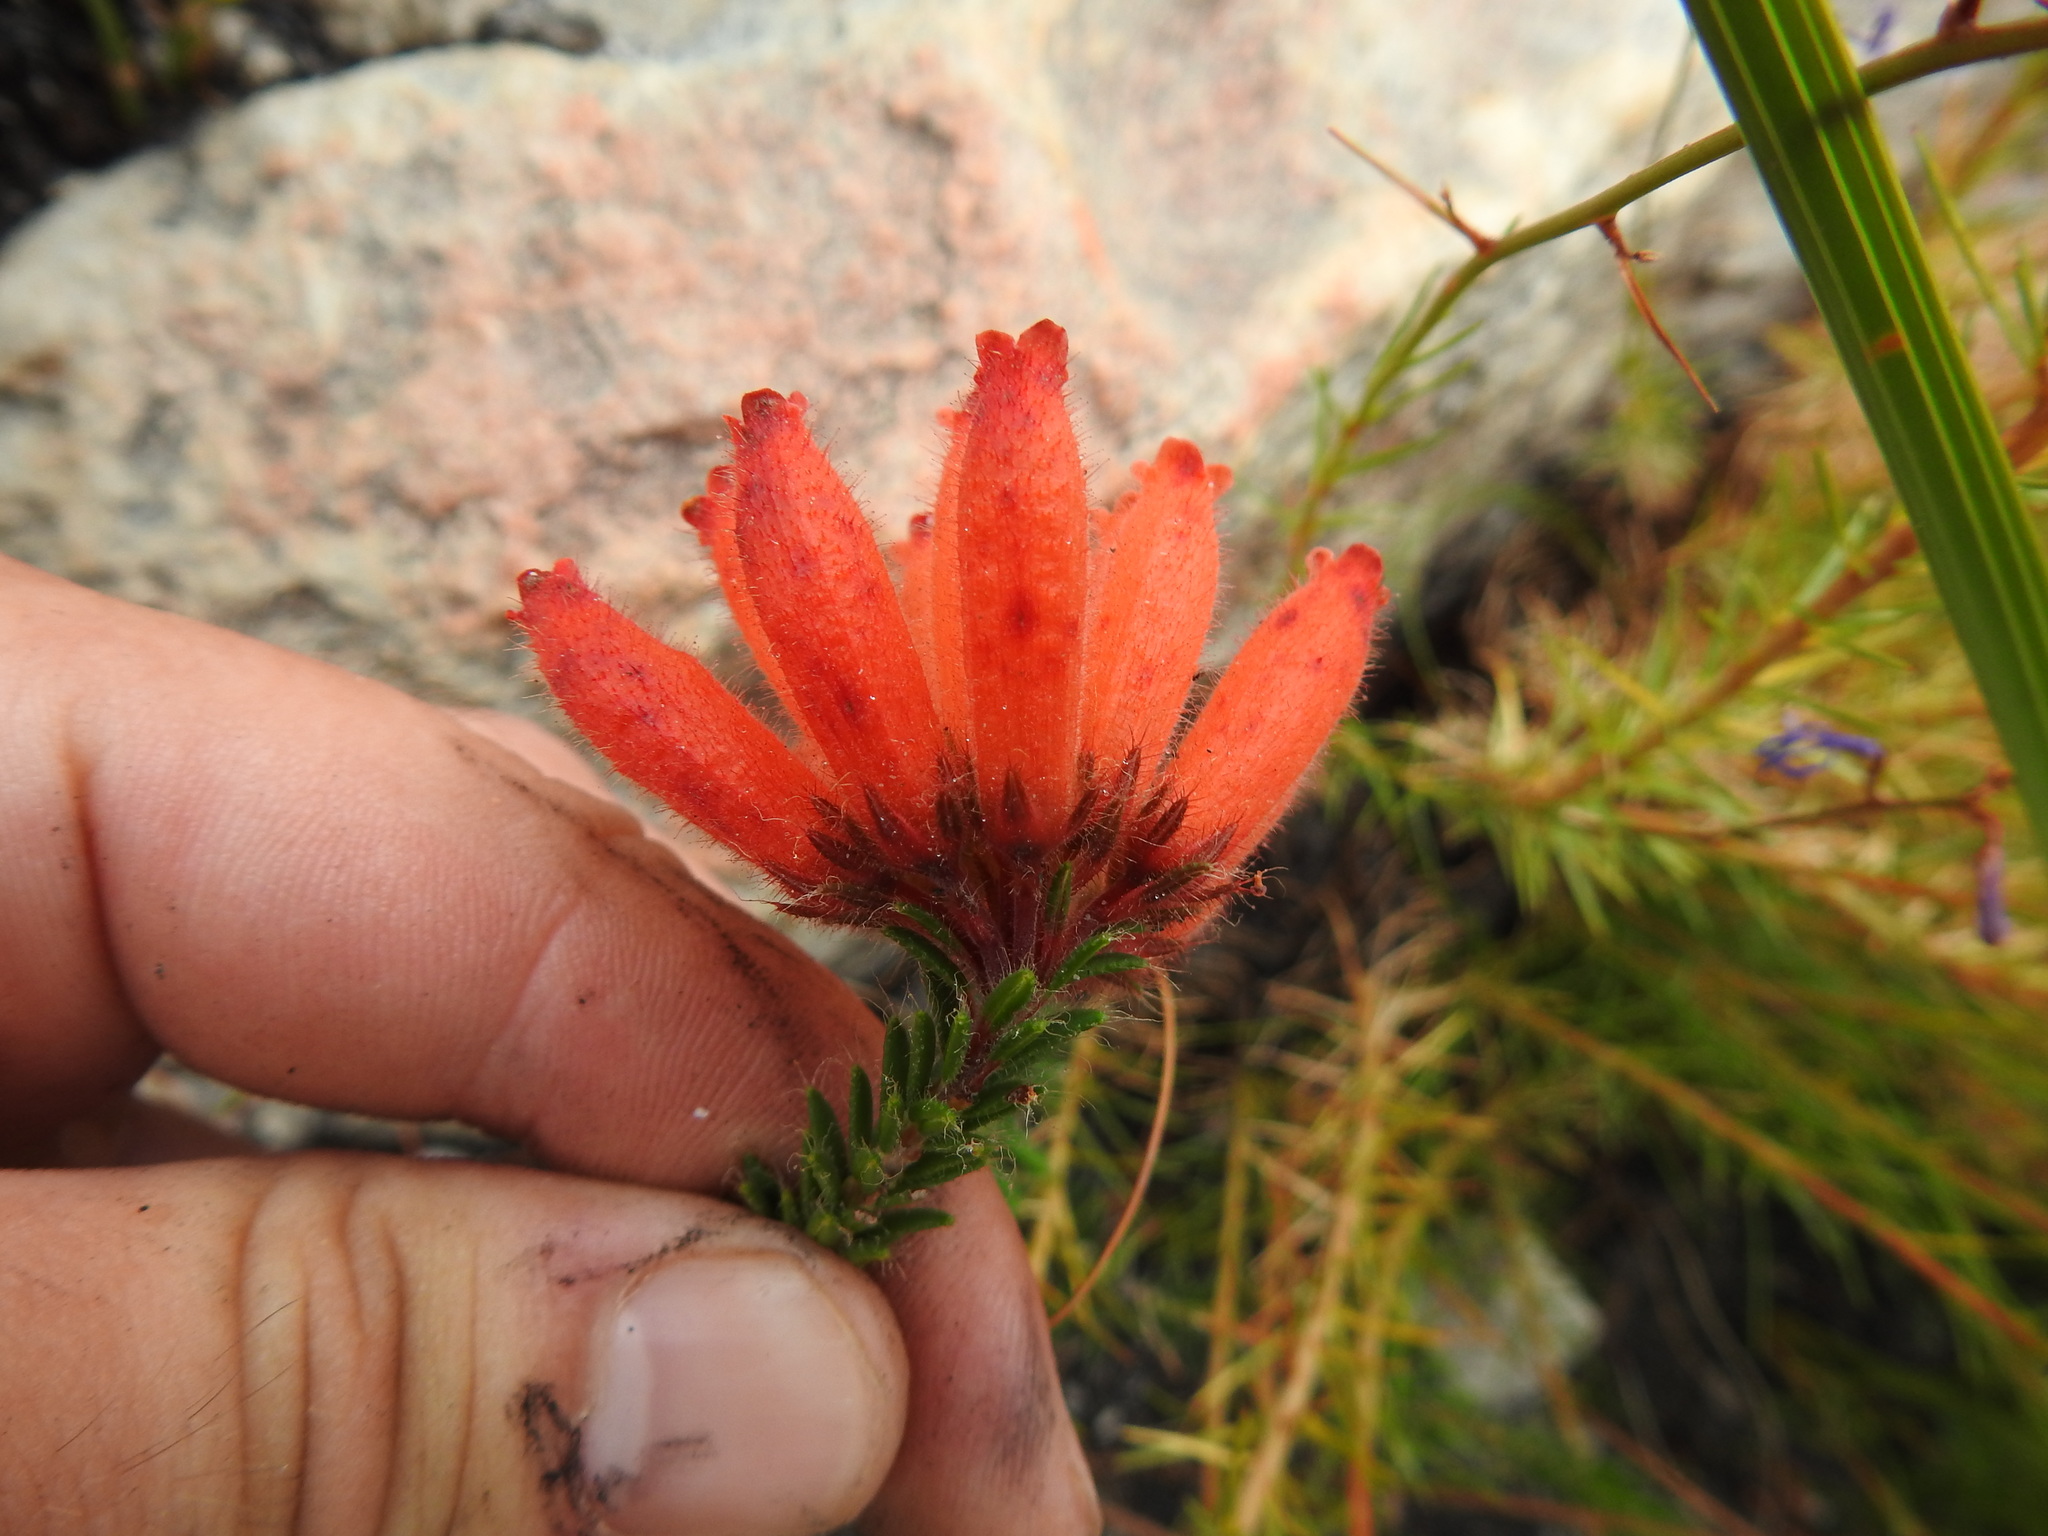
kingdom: Plantae
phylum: Tracheophyta
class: Magnoliopsida
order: Ericales
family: Ericaceae
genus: Erica
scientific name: Erica cerinthoides
